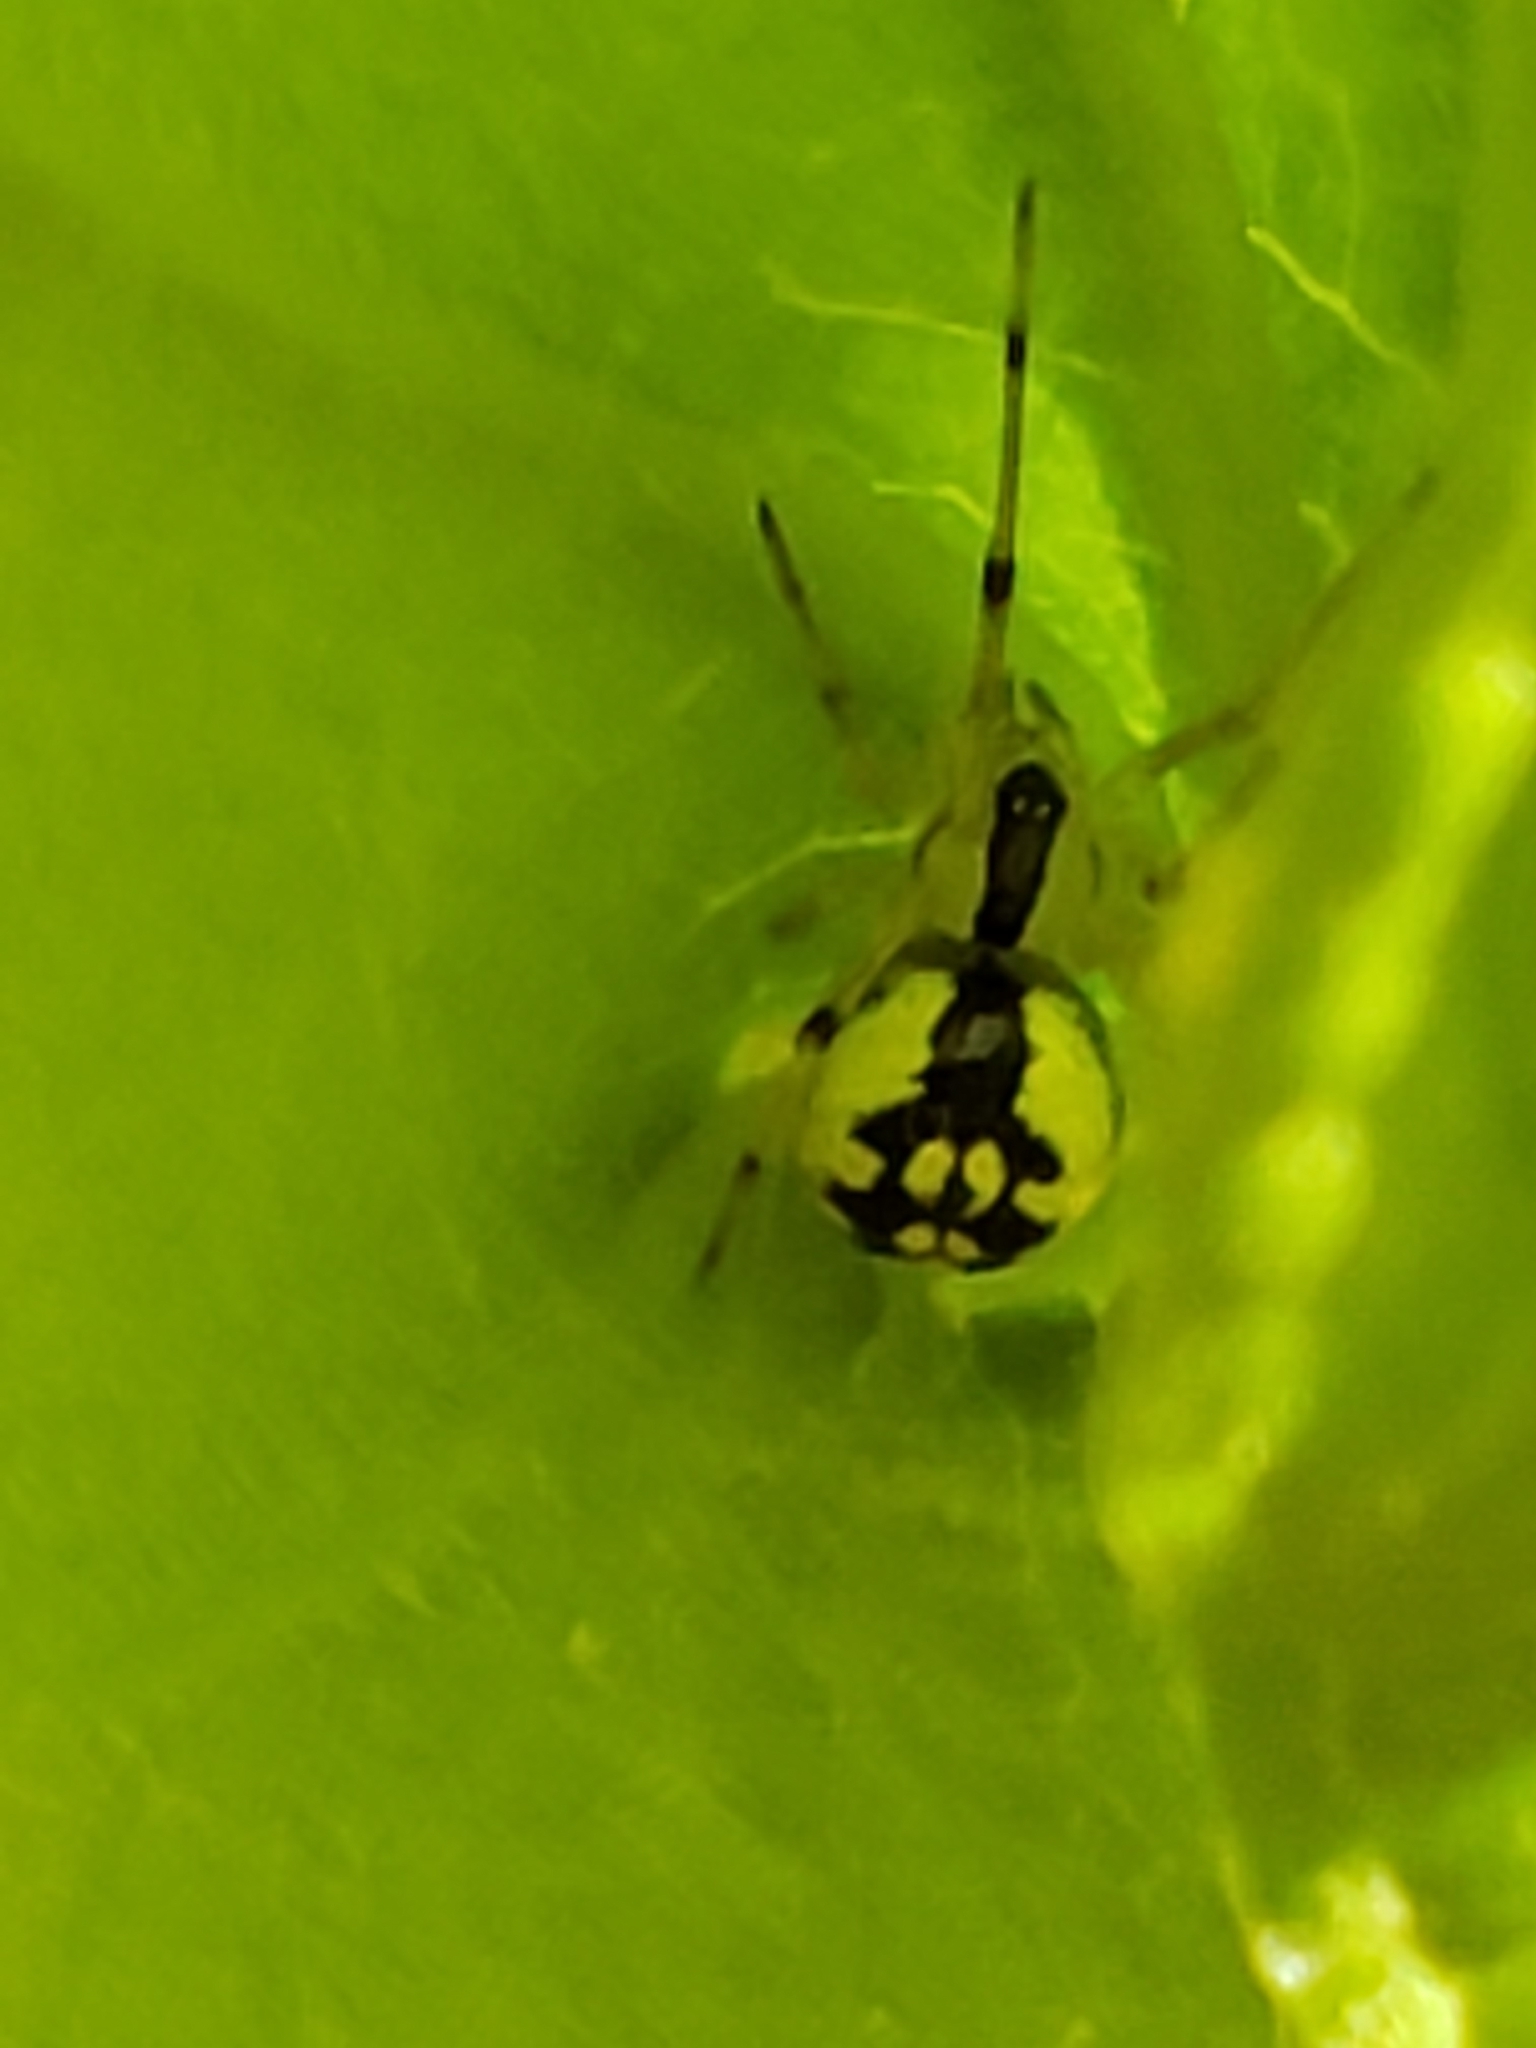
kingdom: Animalia
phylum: Arthropoda
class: Arachnida
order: Araneae
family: Theridiidae
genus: Phylloneta
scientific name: Phylloneta pictipes
